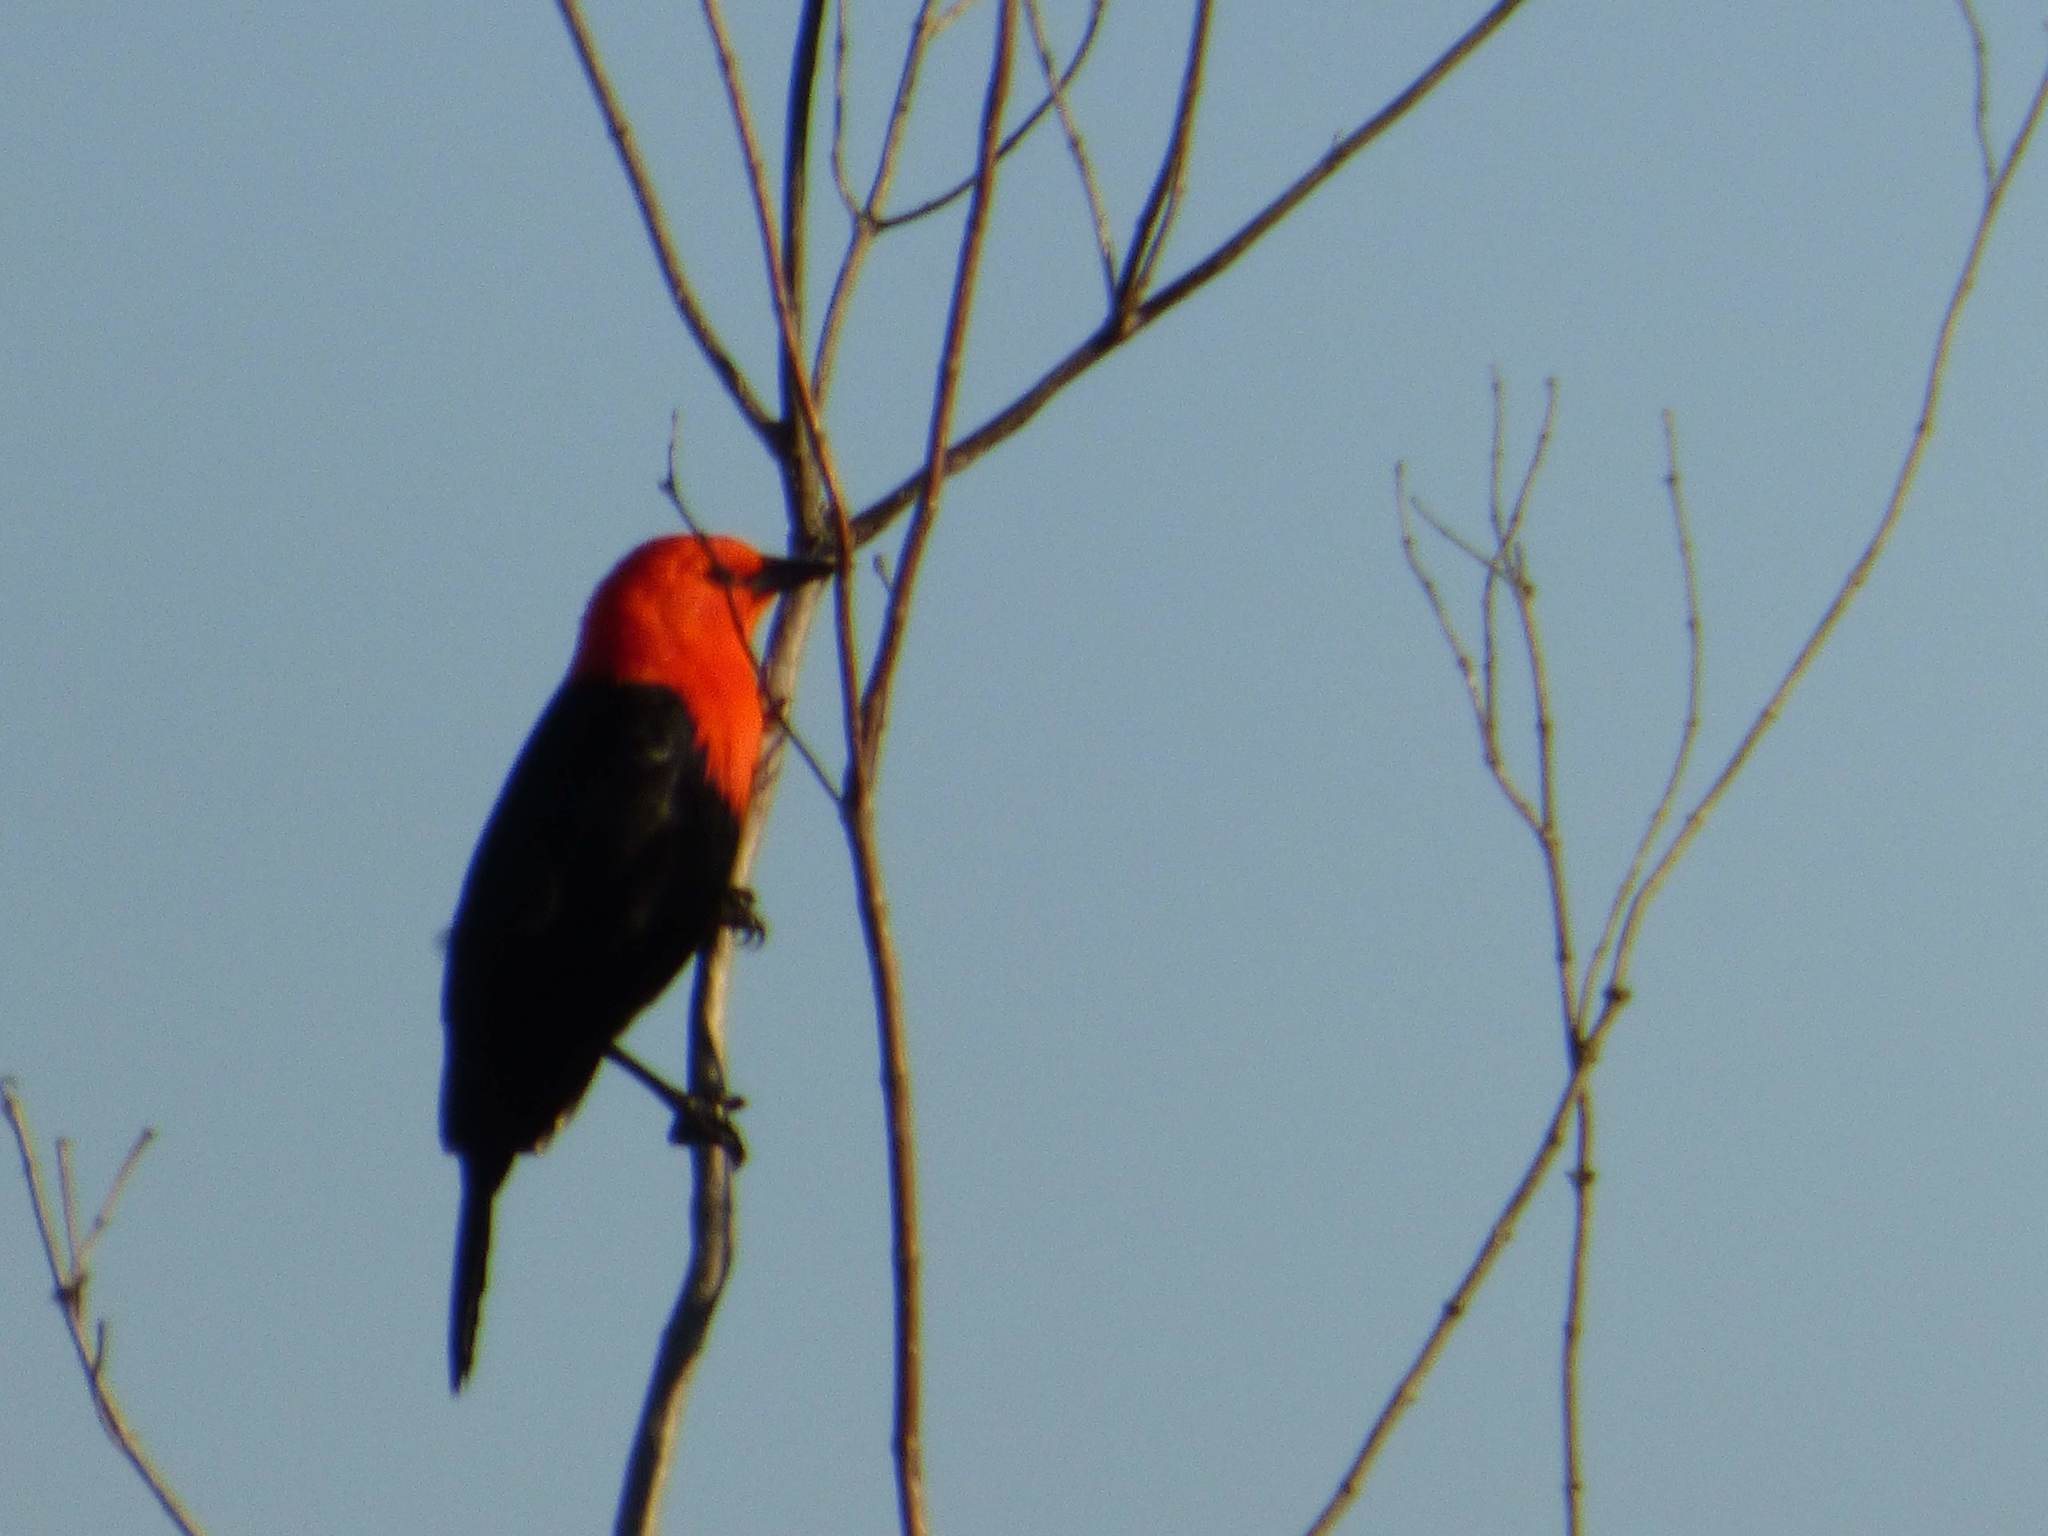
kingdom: Animalia
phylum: Chordata
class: Aves
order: Passeriformes
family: Icteridae
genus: Amblyramphus
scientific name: Amblyramphus holosericeus
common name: Scarlet-headed blackbird
